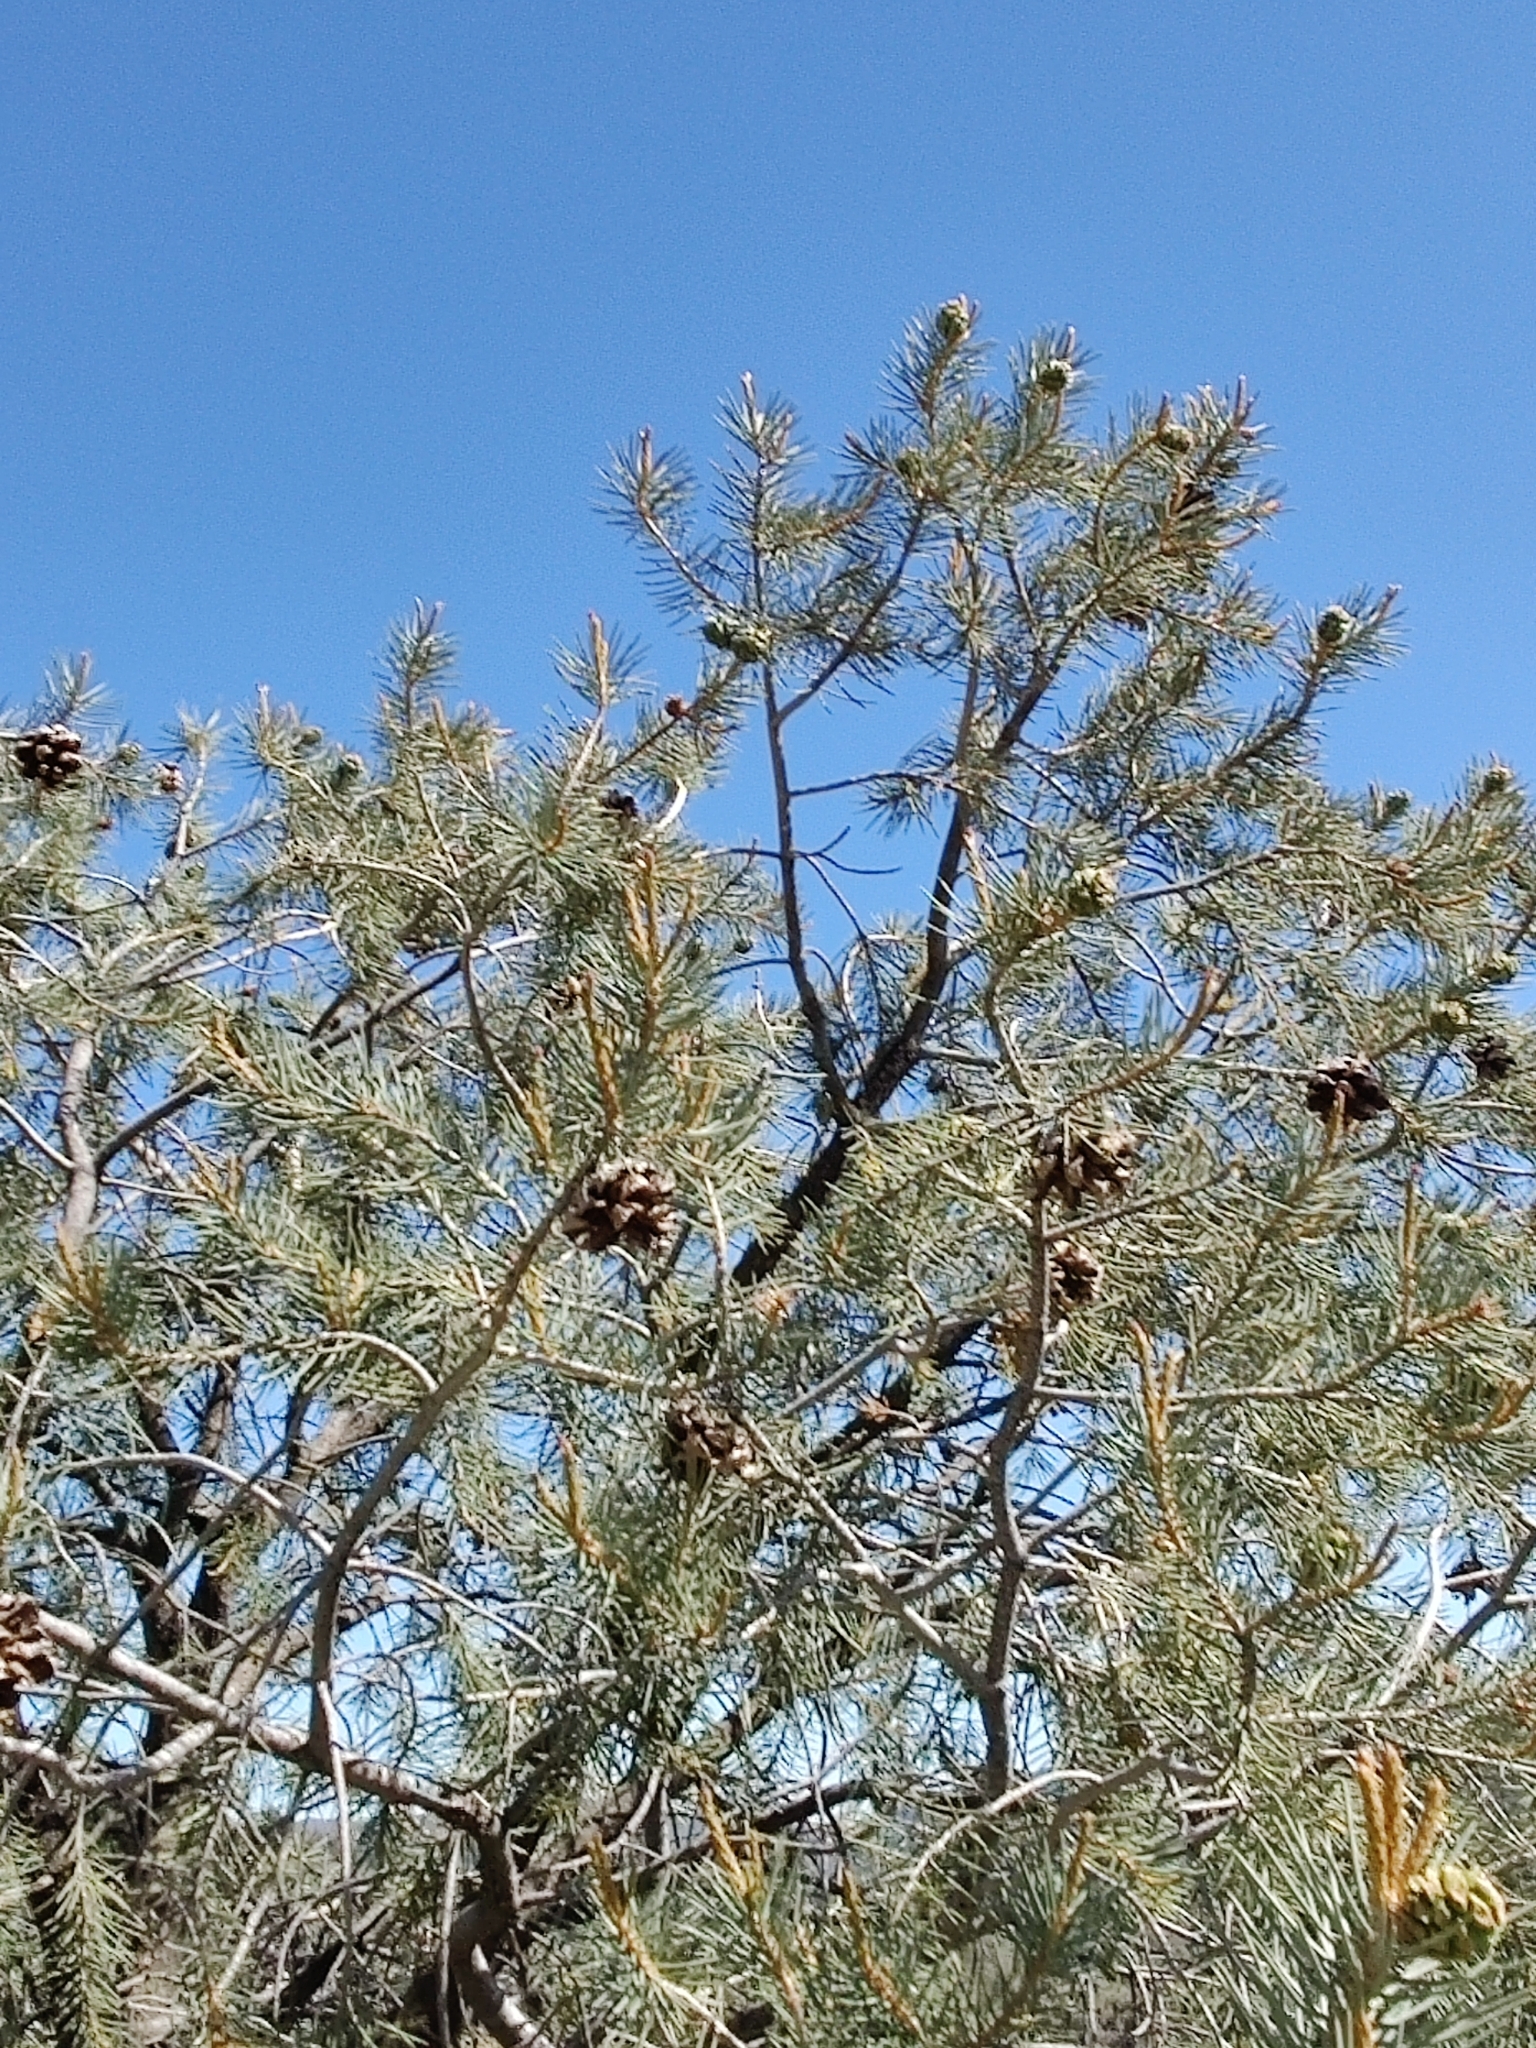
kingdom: Plantae
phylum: Tracheophyta
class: Pinopsida
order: Pinales
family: Pinaceae
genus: Pinus
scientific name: Pinus monophylla
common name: One-leaved nut pine
